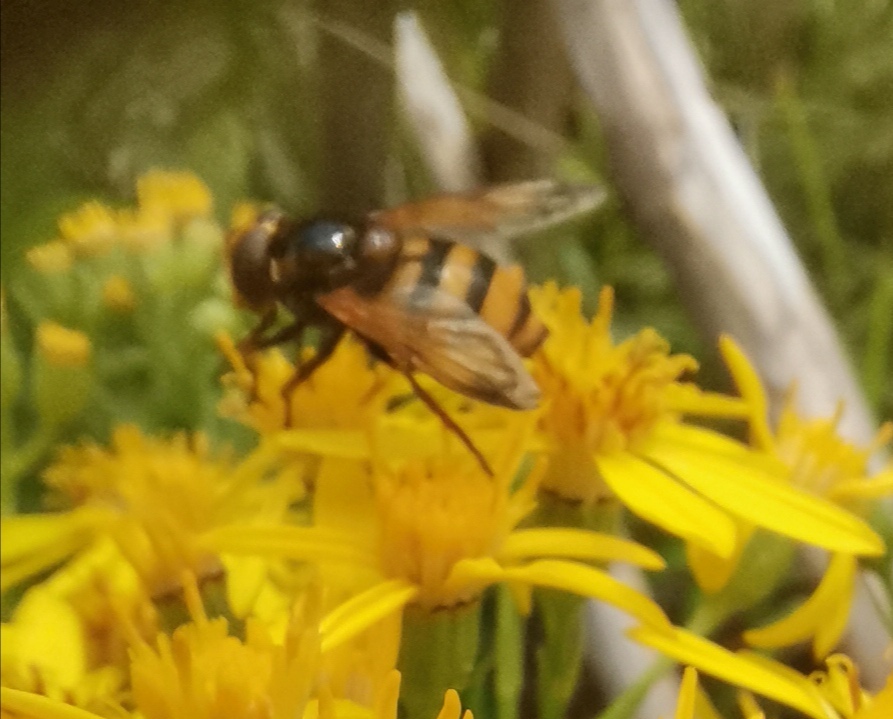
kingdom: Animalia
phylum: Arthropoda
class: Insecta
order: Diptera
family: Syrphidae
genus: Volucella
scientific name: Volucella inanis
